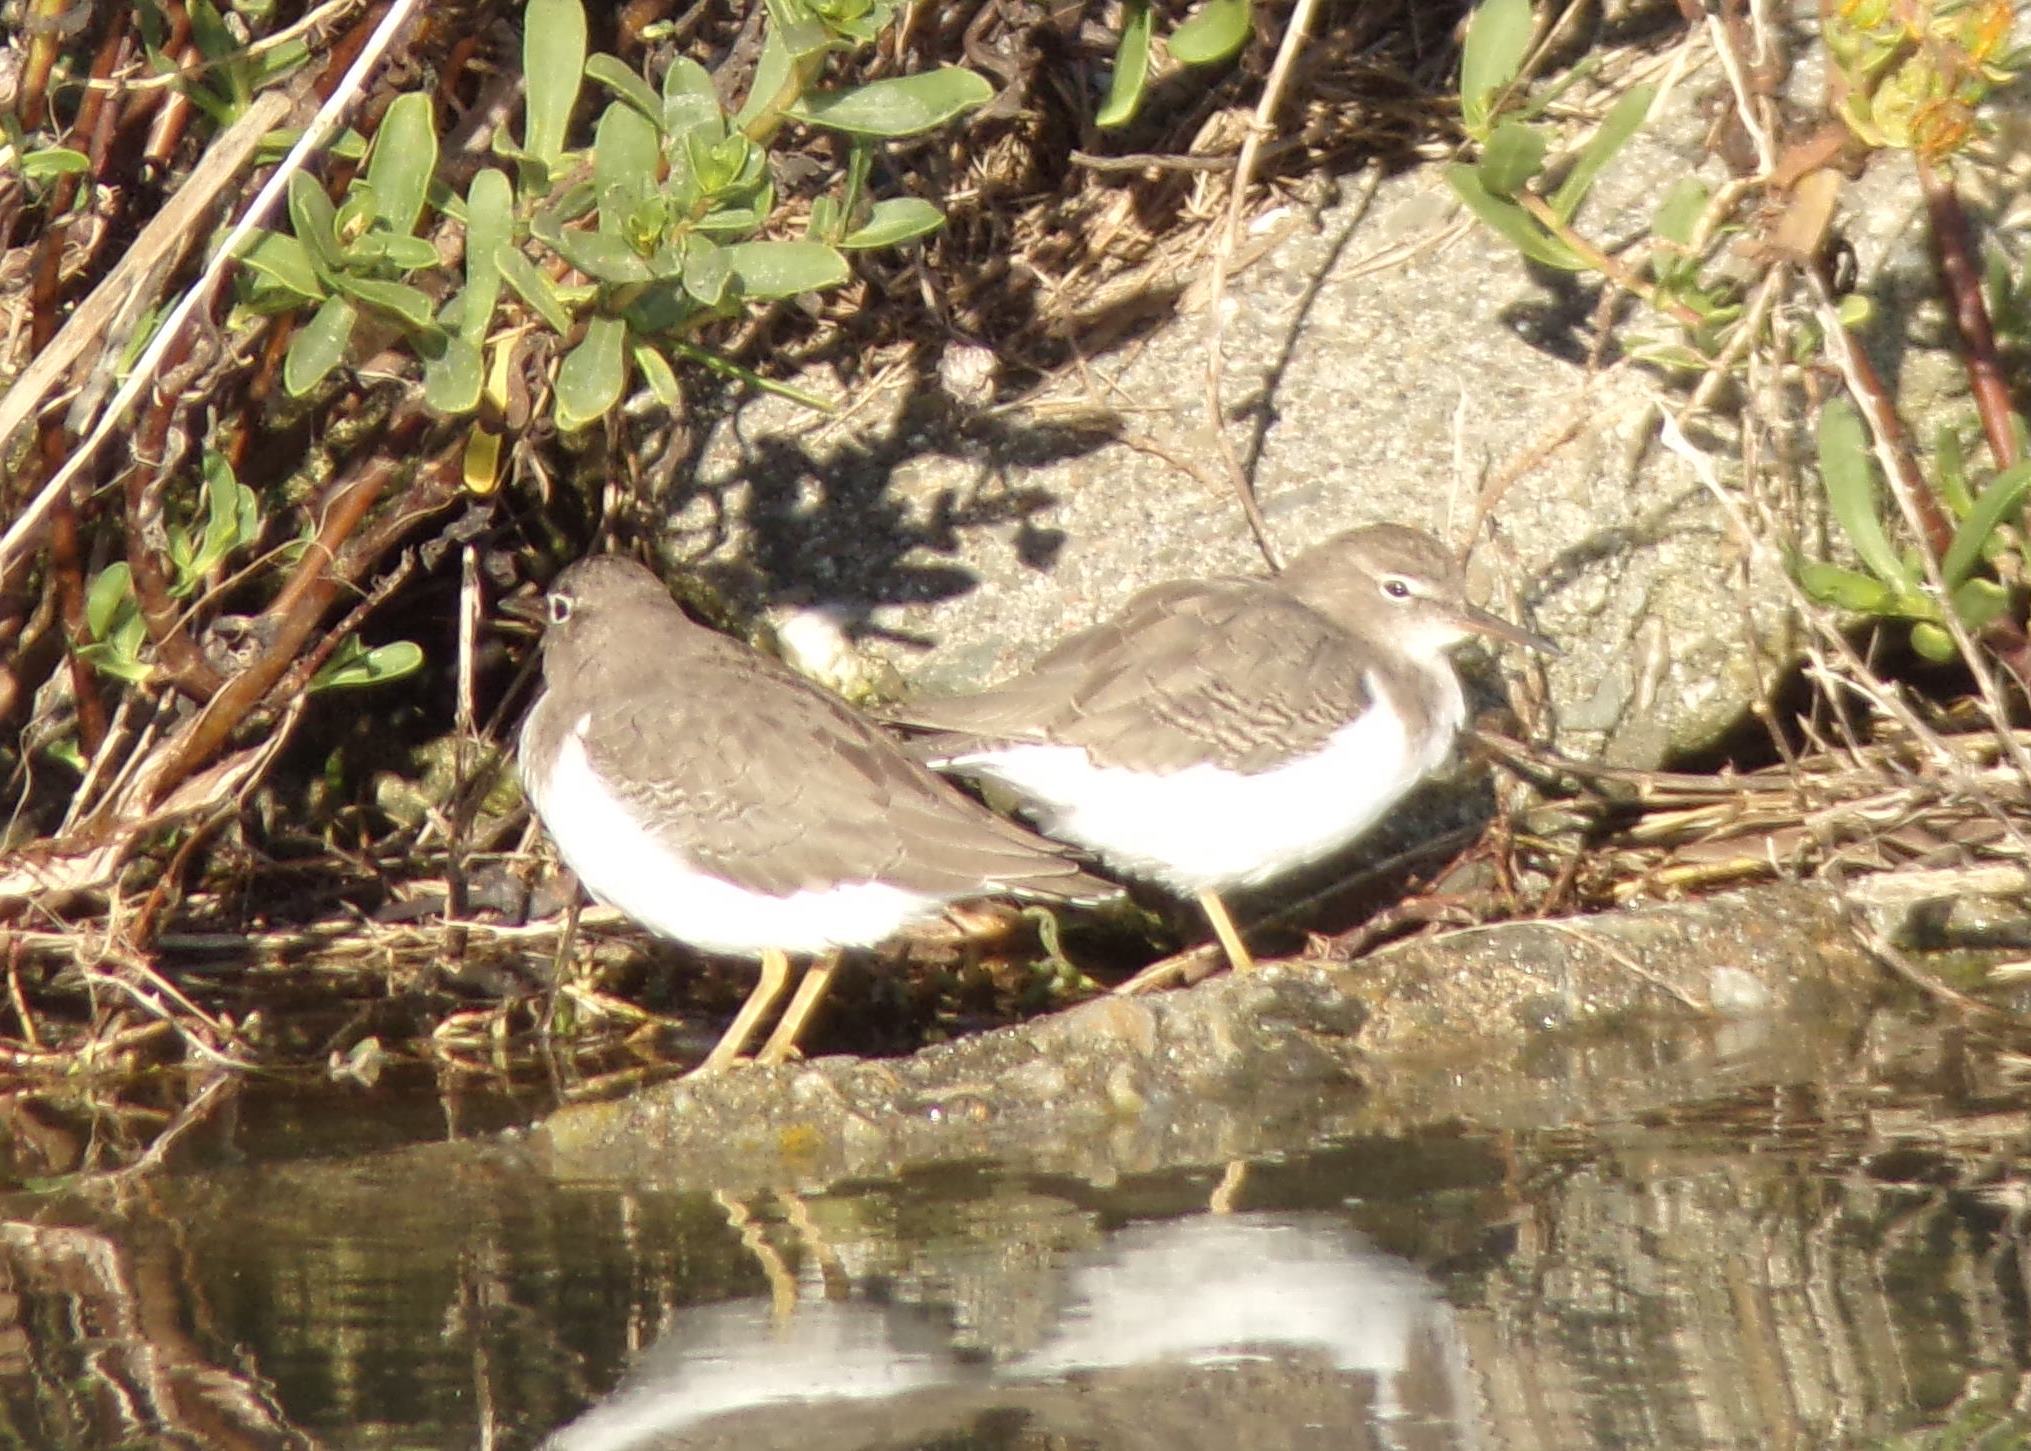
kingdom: Animalia
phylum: Chordata
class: Aves
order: Charadriiformes
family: Scolopacidae
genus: Actitis
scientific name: Actitis macularius
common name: Spotted sandpiper
